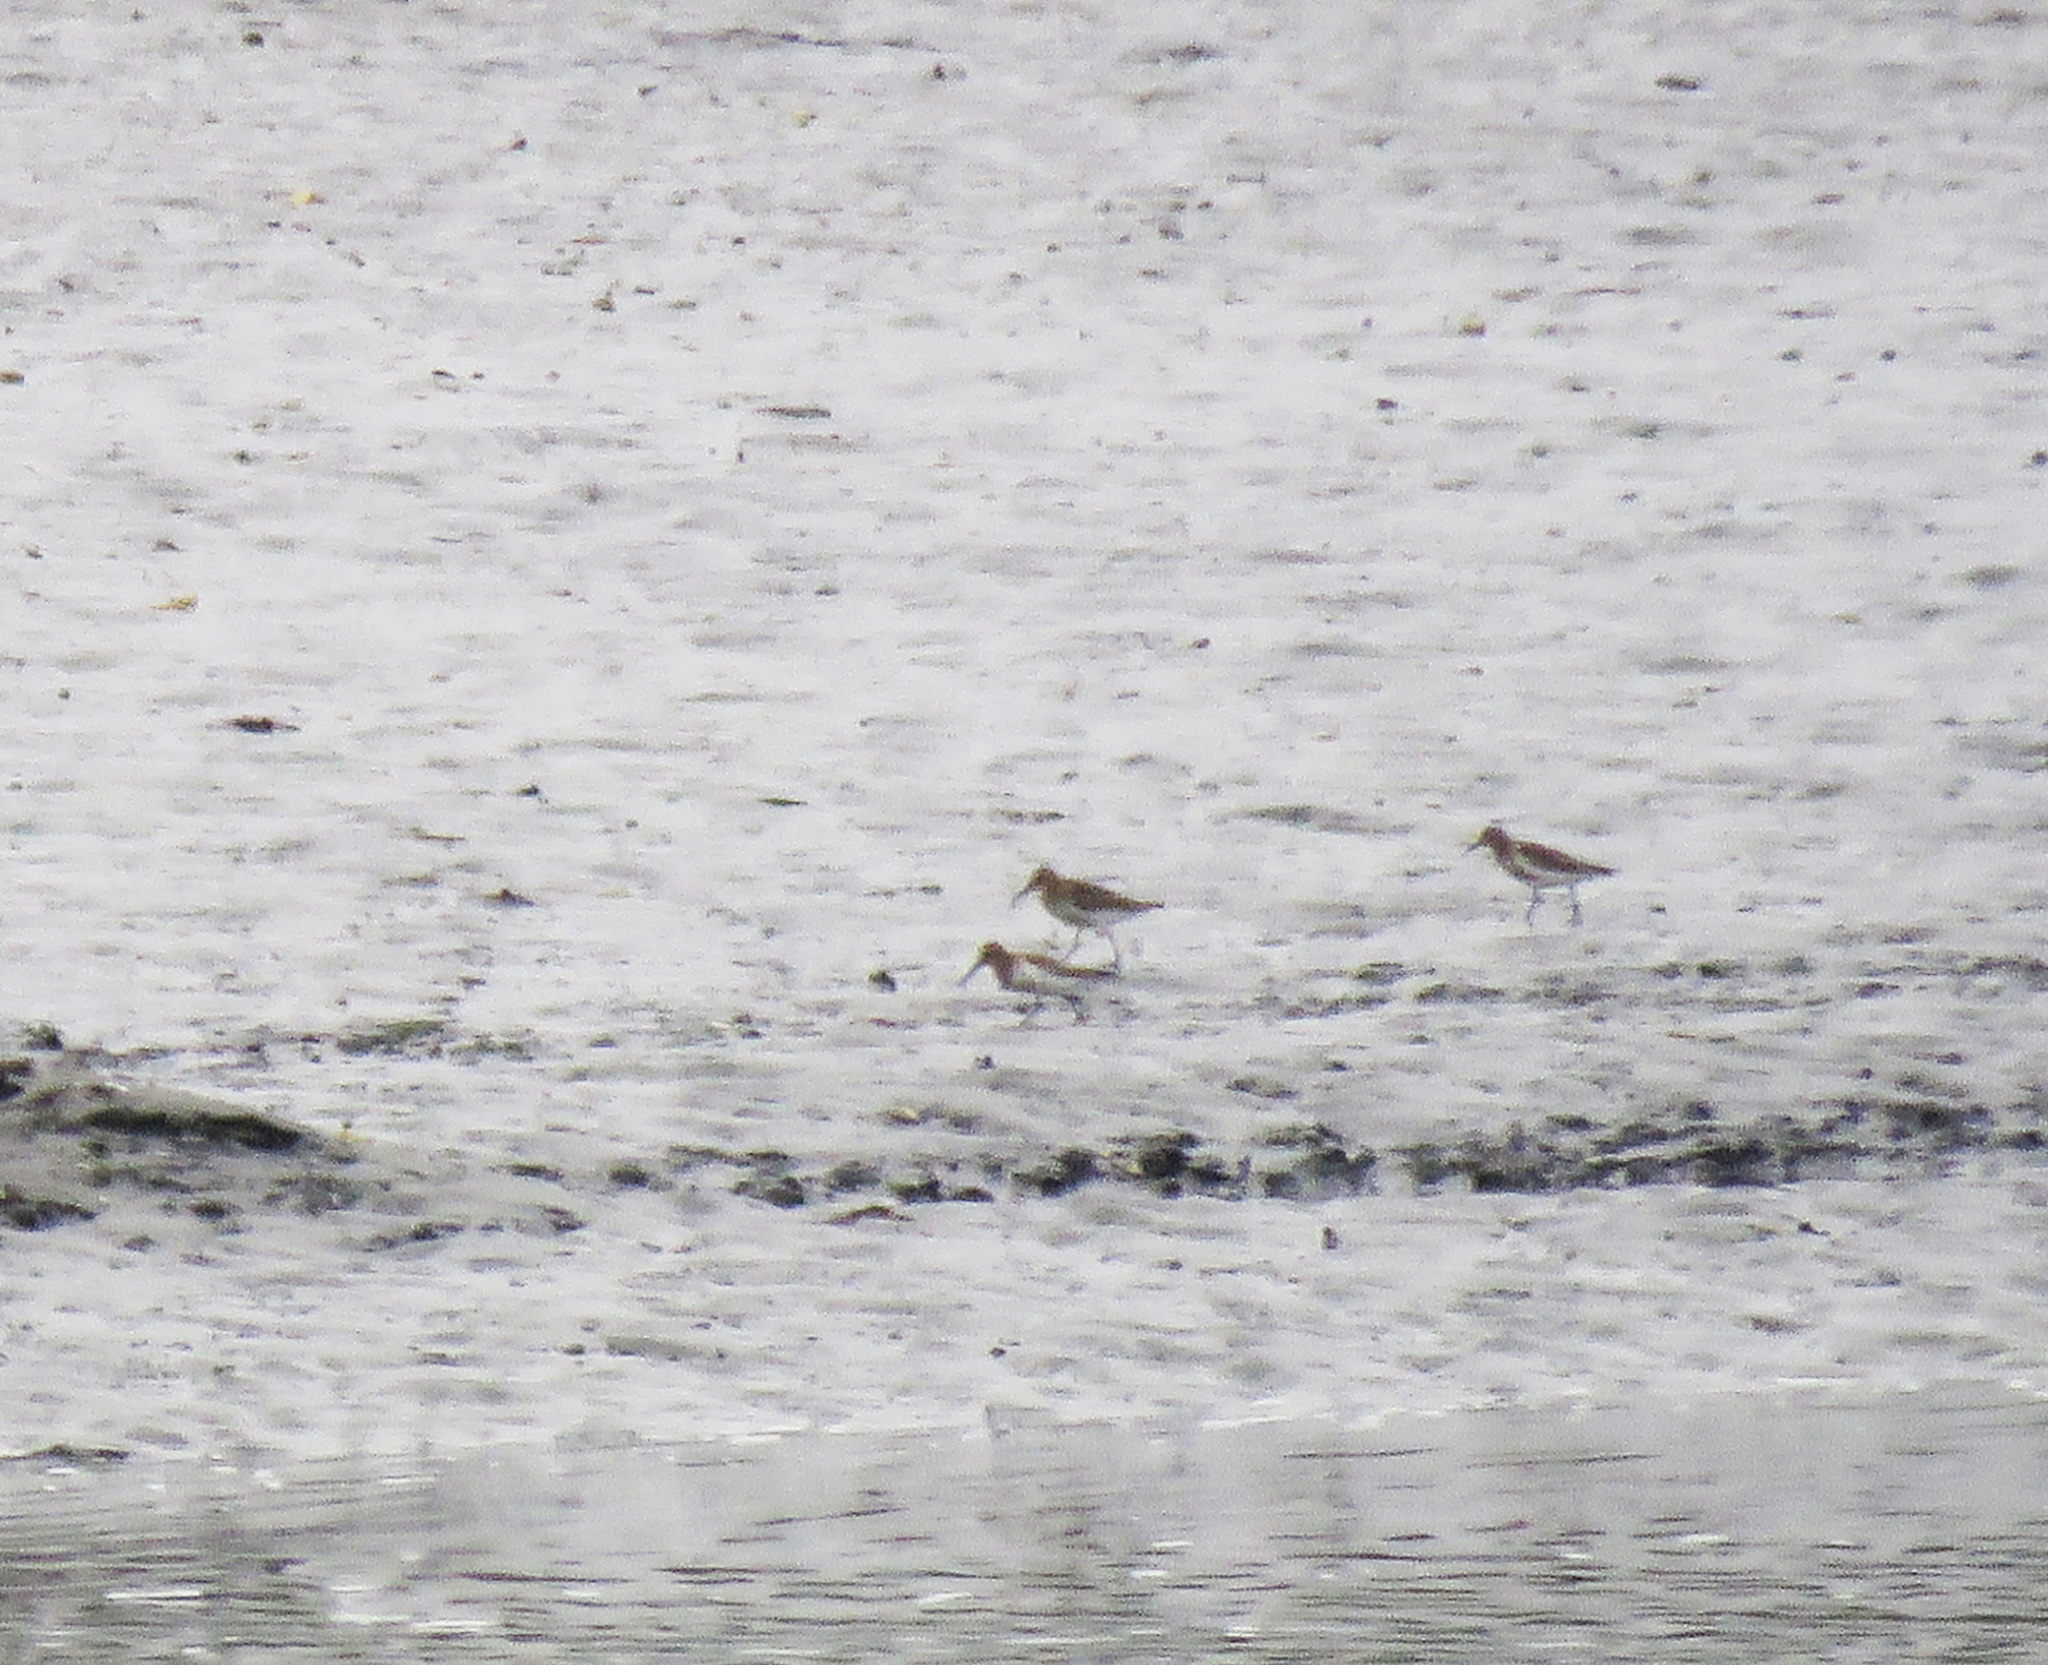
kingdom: Animalia
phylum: Chordata
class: Aves
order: Charadriiformes
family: Scolopacidae
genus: Calidris
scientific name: Calidris alpina
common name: Dunlin
